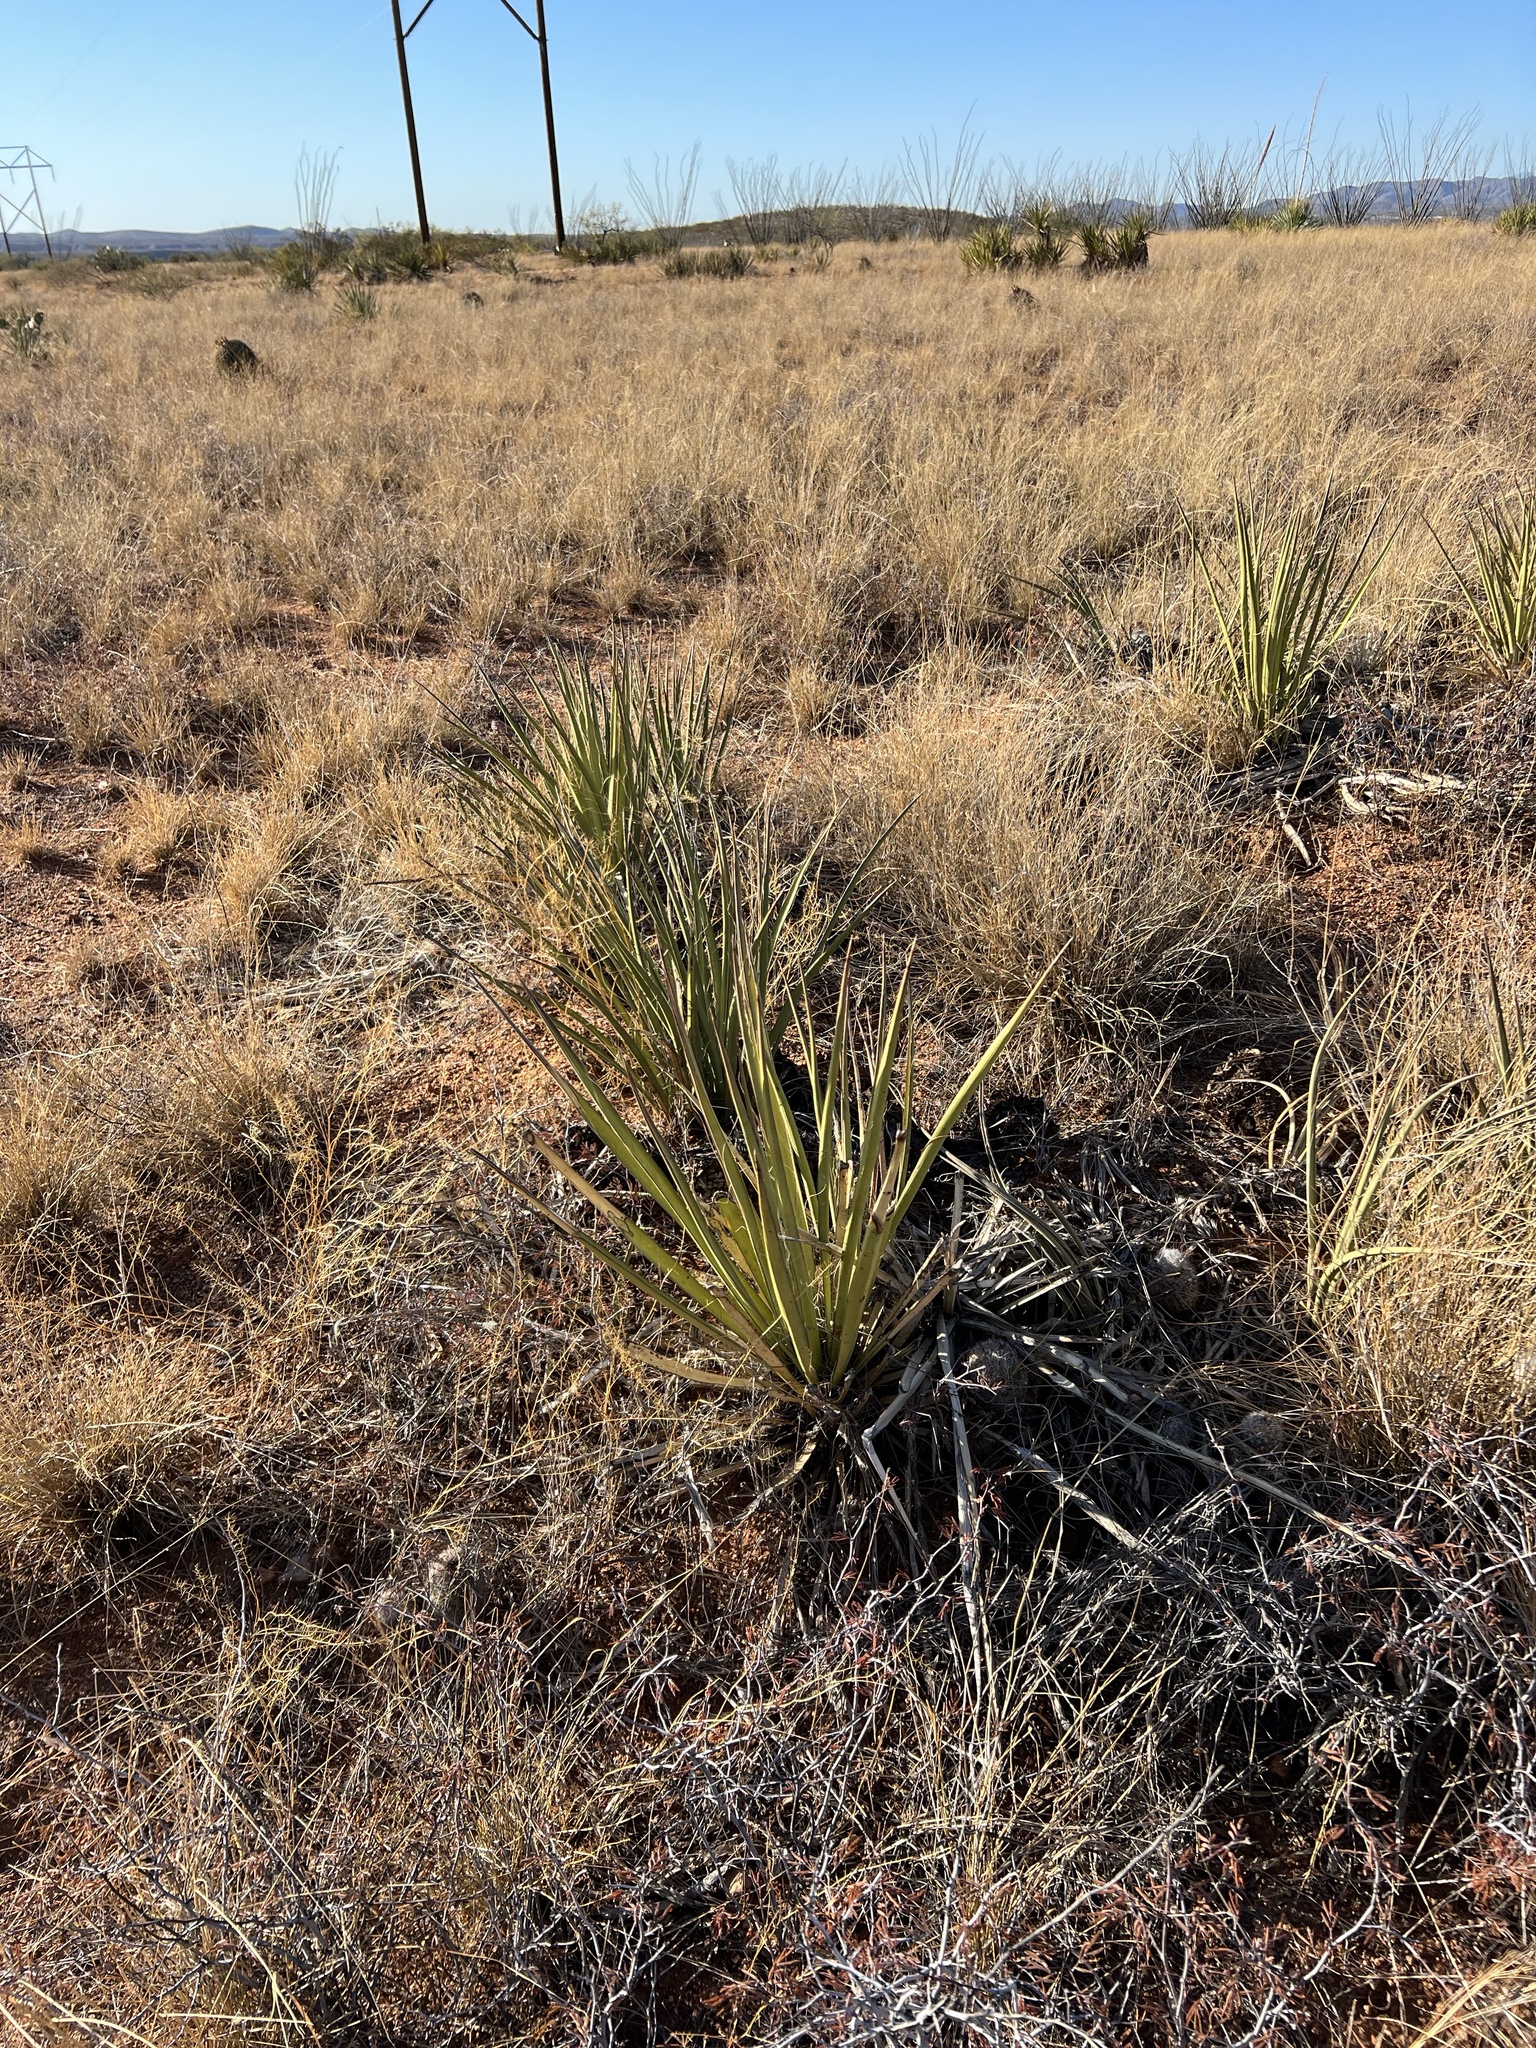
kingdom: Plantae
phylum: Tracheophyta
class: Liliopsida
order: Asparagales
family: Asparagaceae
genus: Yucca
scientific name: Yucca baccata
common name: Banana yucca
